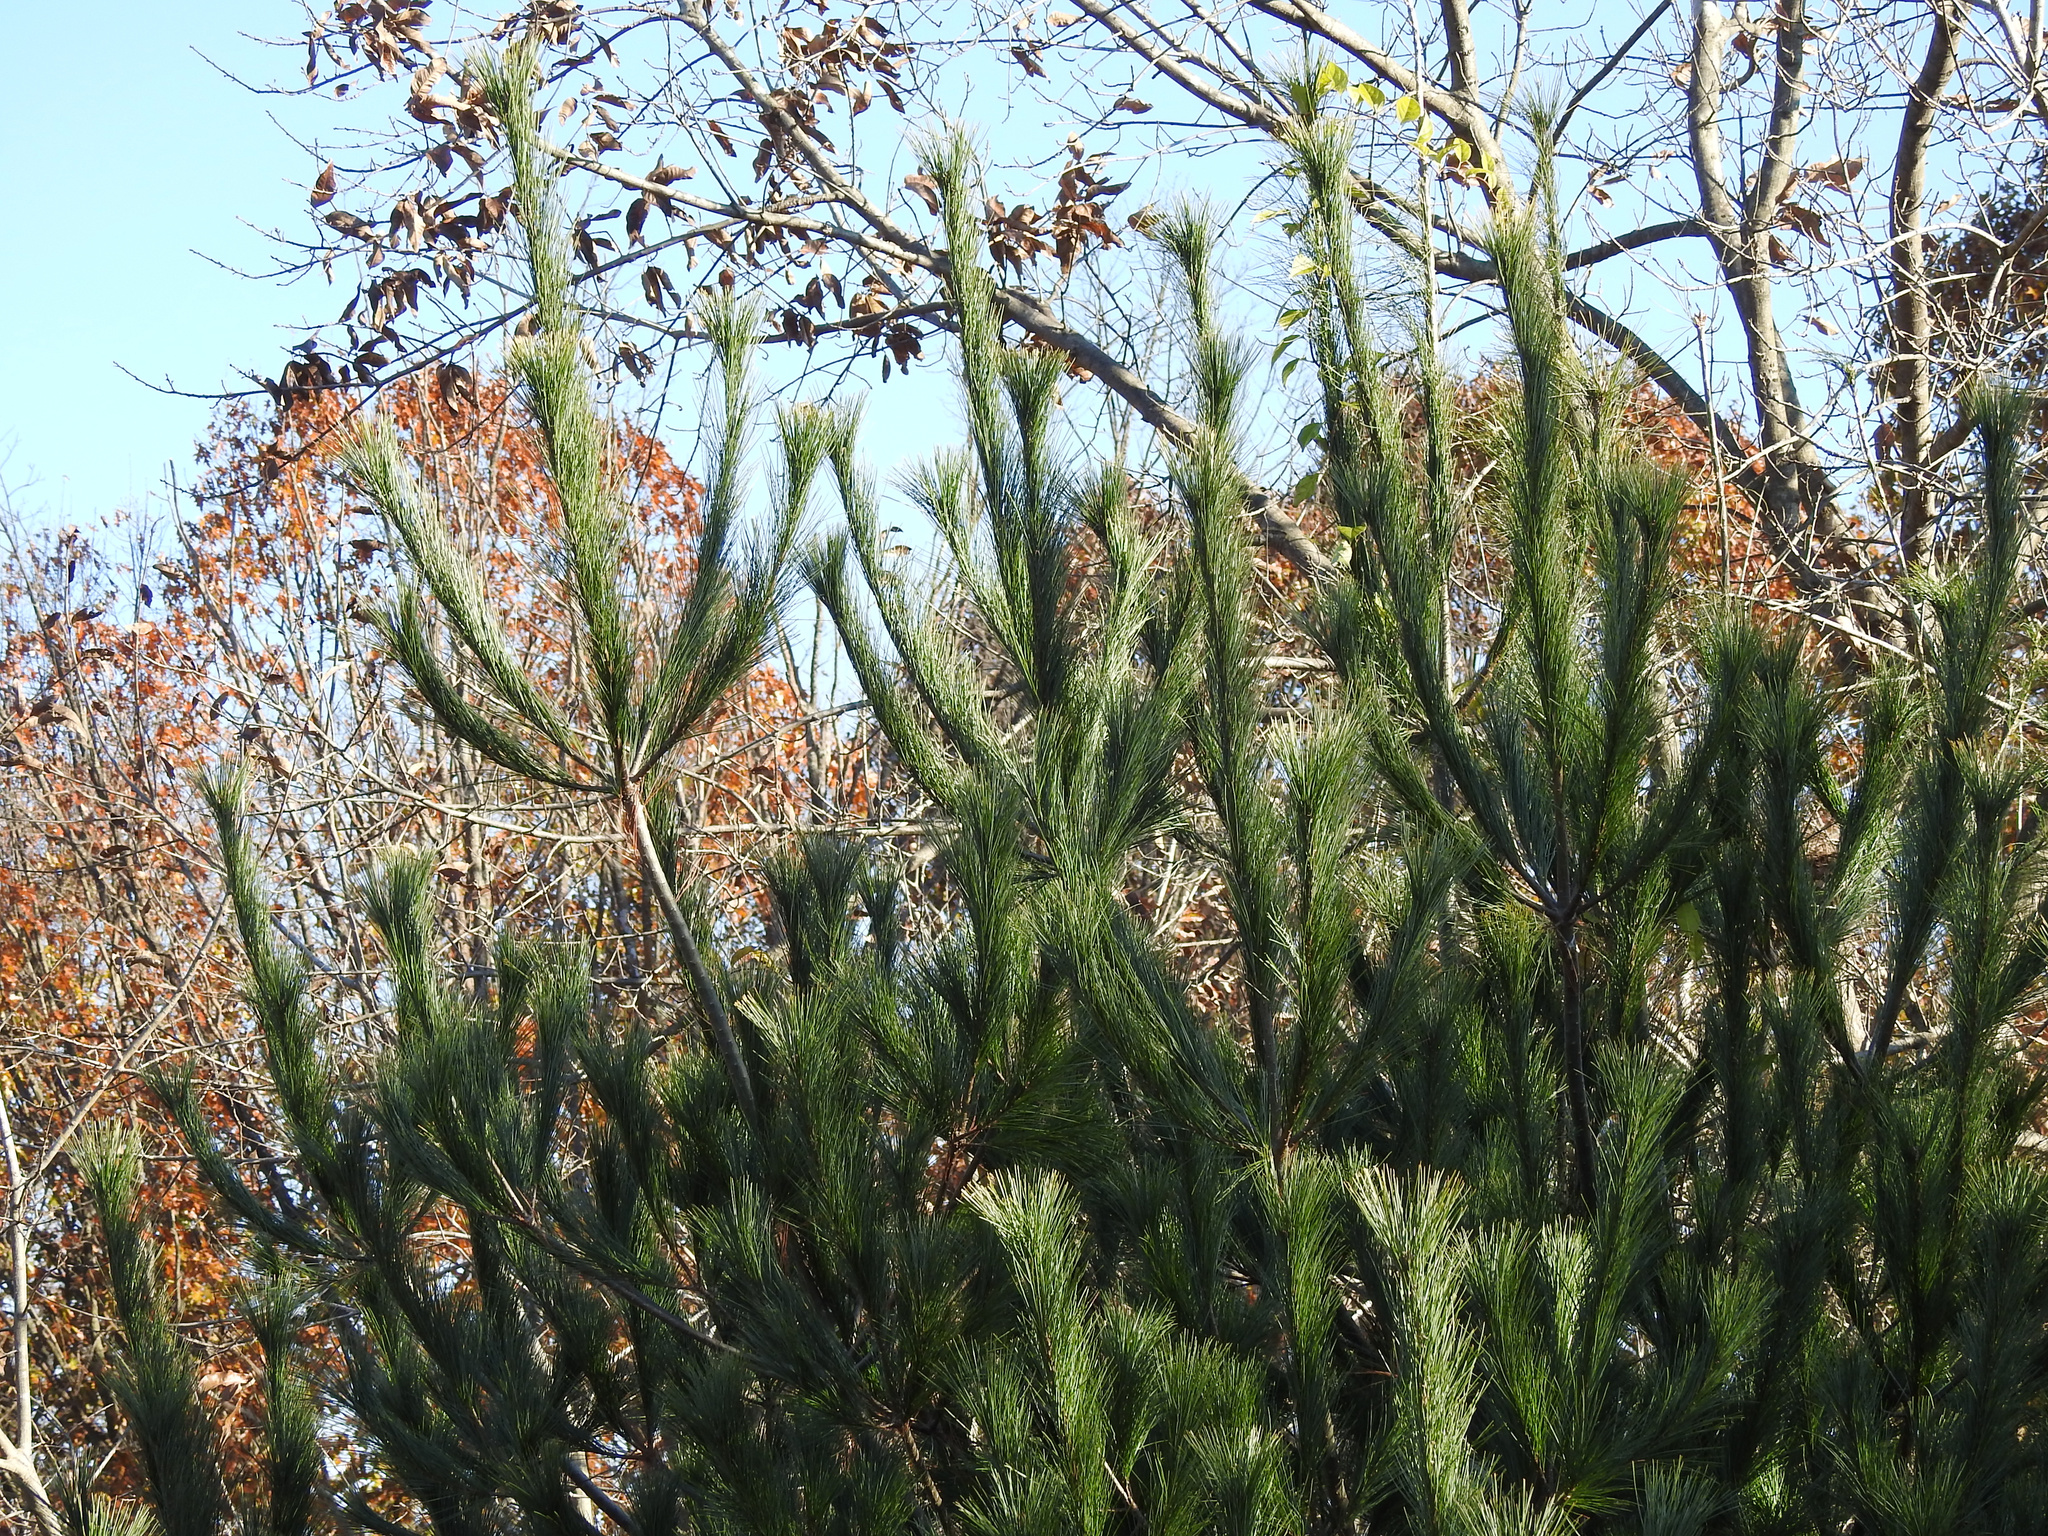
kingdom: Plantae
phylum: Tracheophyta
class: Pinopsida
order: Pinales
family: Pinaceae
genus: Pinus
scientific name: Pinus strobus
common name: Weymouth pine
